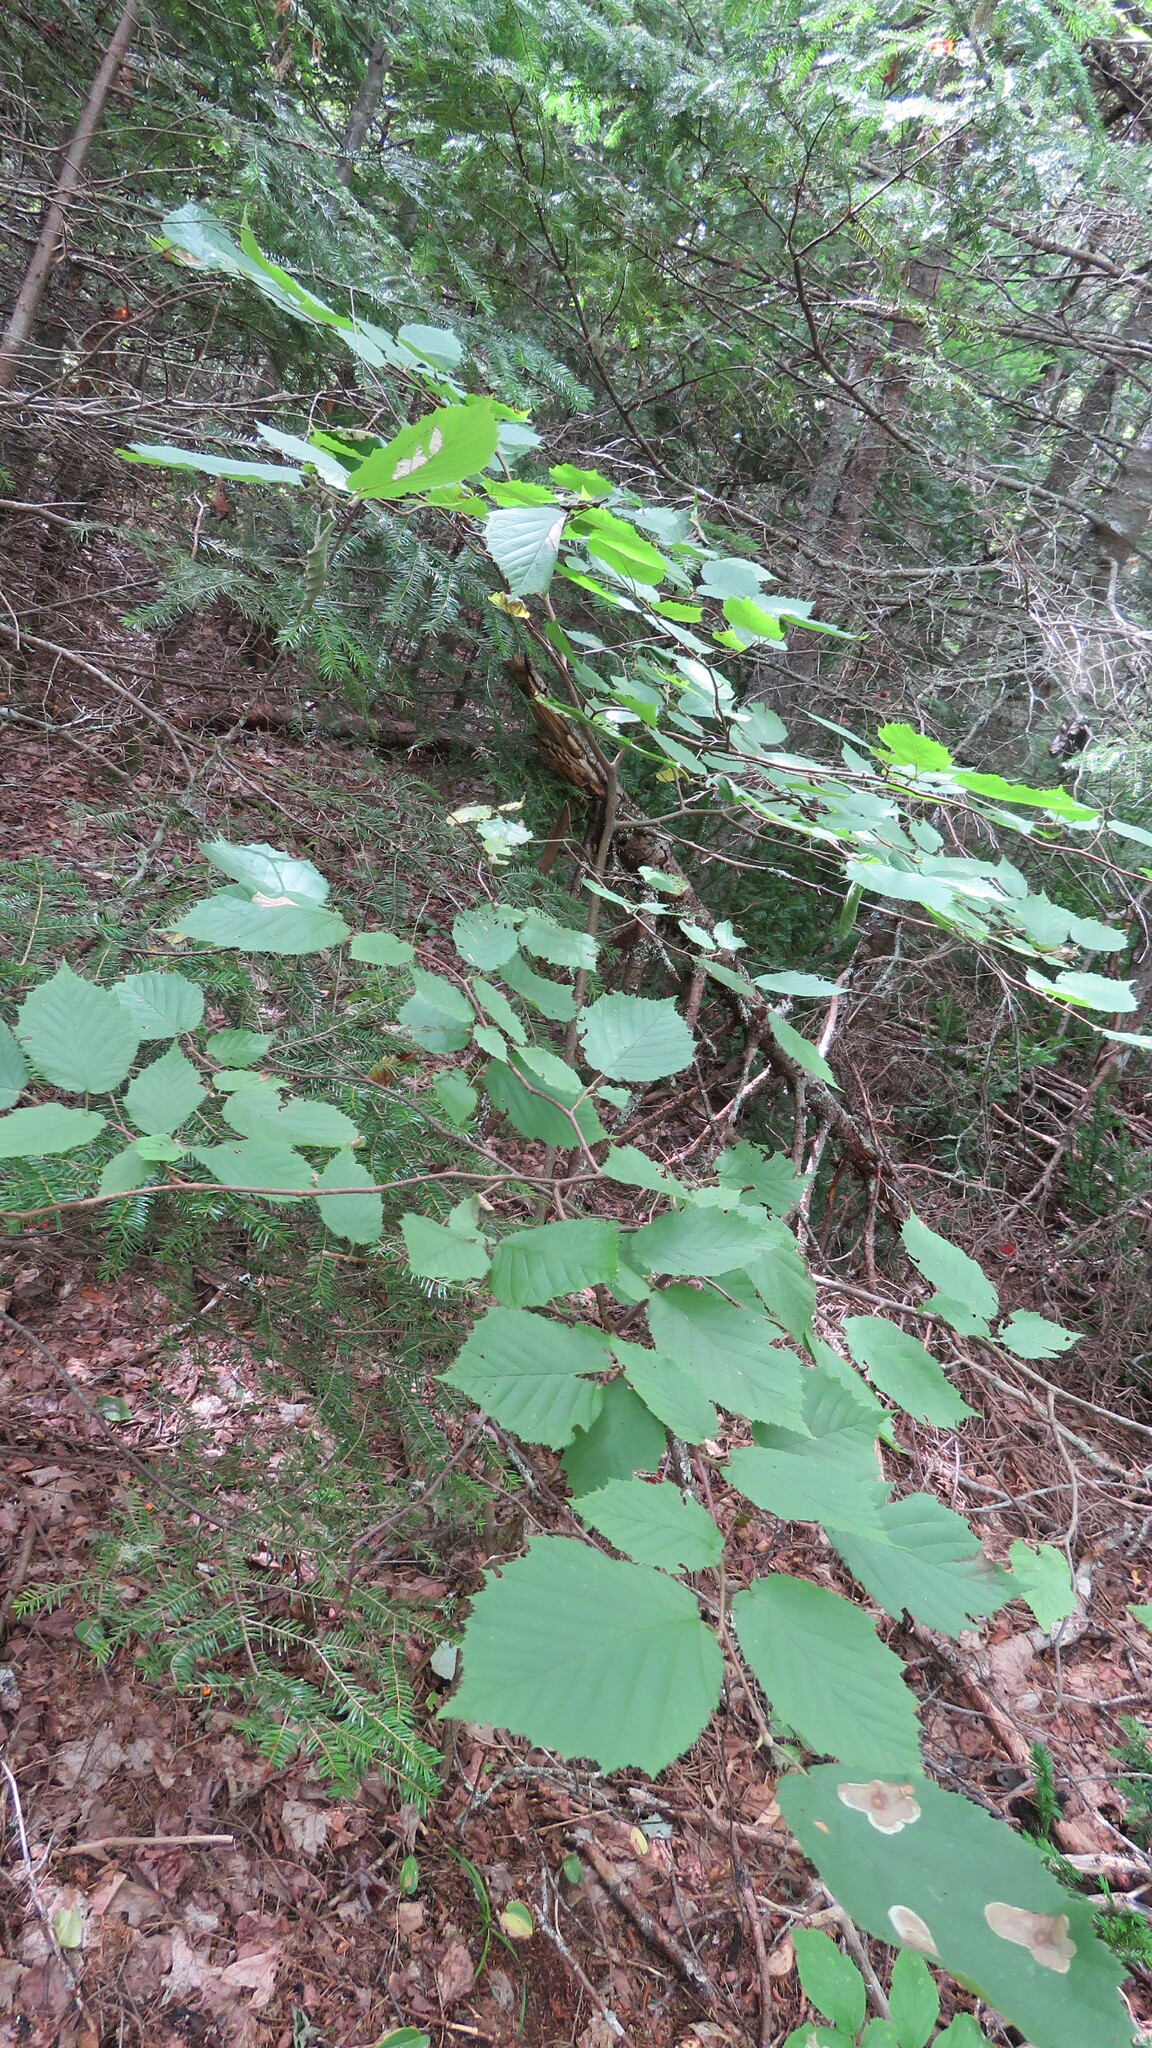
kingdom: Plantae
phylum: Tracheophyta
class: Magnoliopsida
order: Fagales
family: Betulaceae
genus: Corylus
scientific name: Corylus cornuta
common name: Beaked hazel
